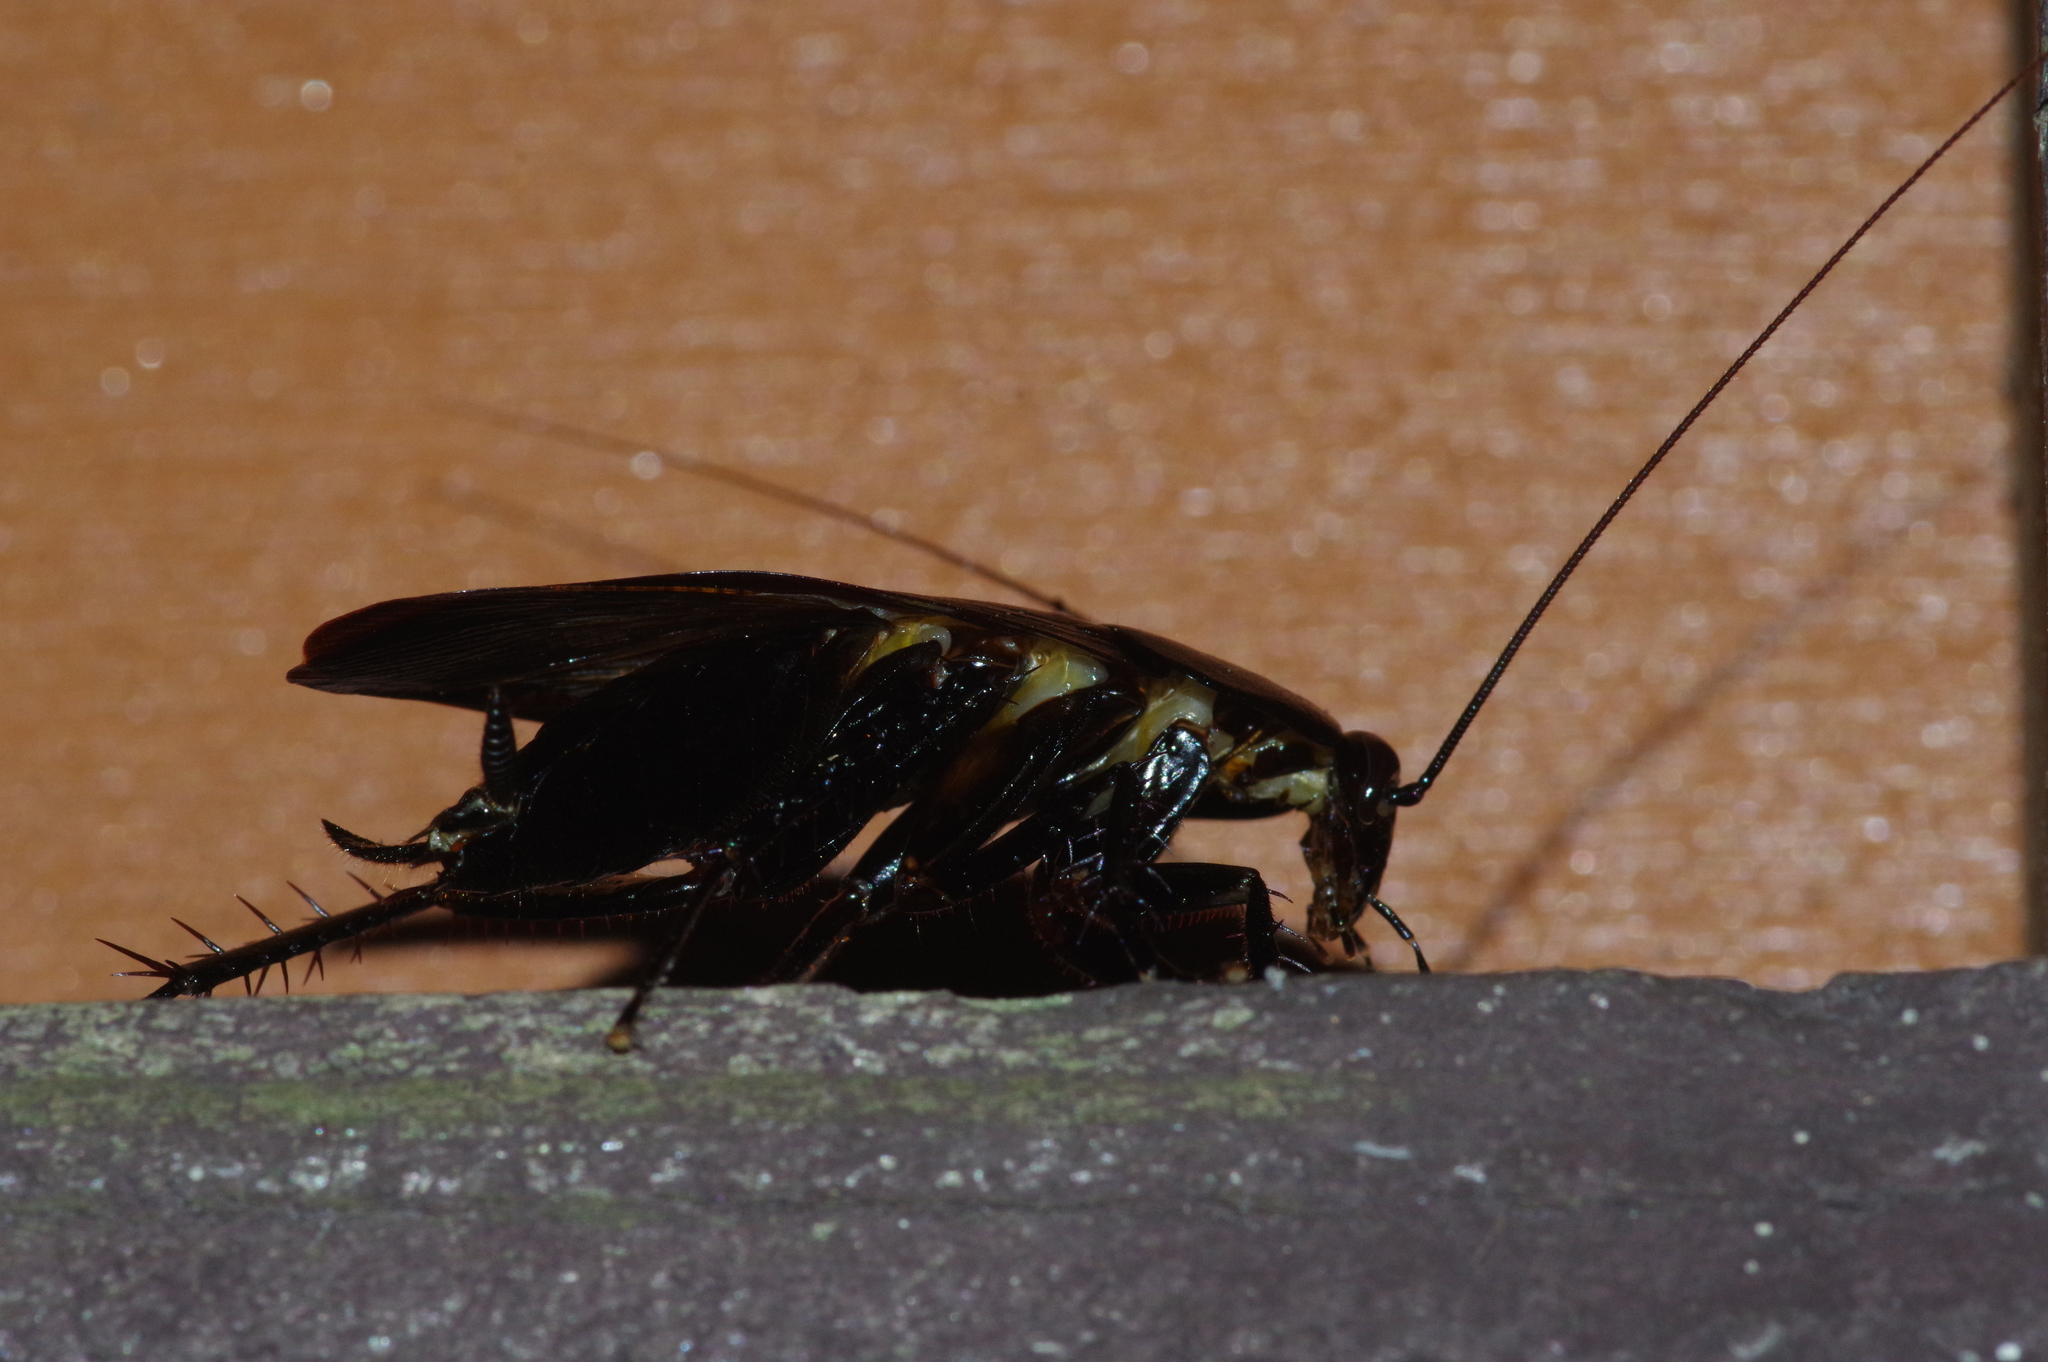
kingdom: Animalia
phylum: Arthropoda
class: Insecta
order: Blattodea
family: Blattidae
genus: Periplaneta
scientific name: Periplaneta japanna
